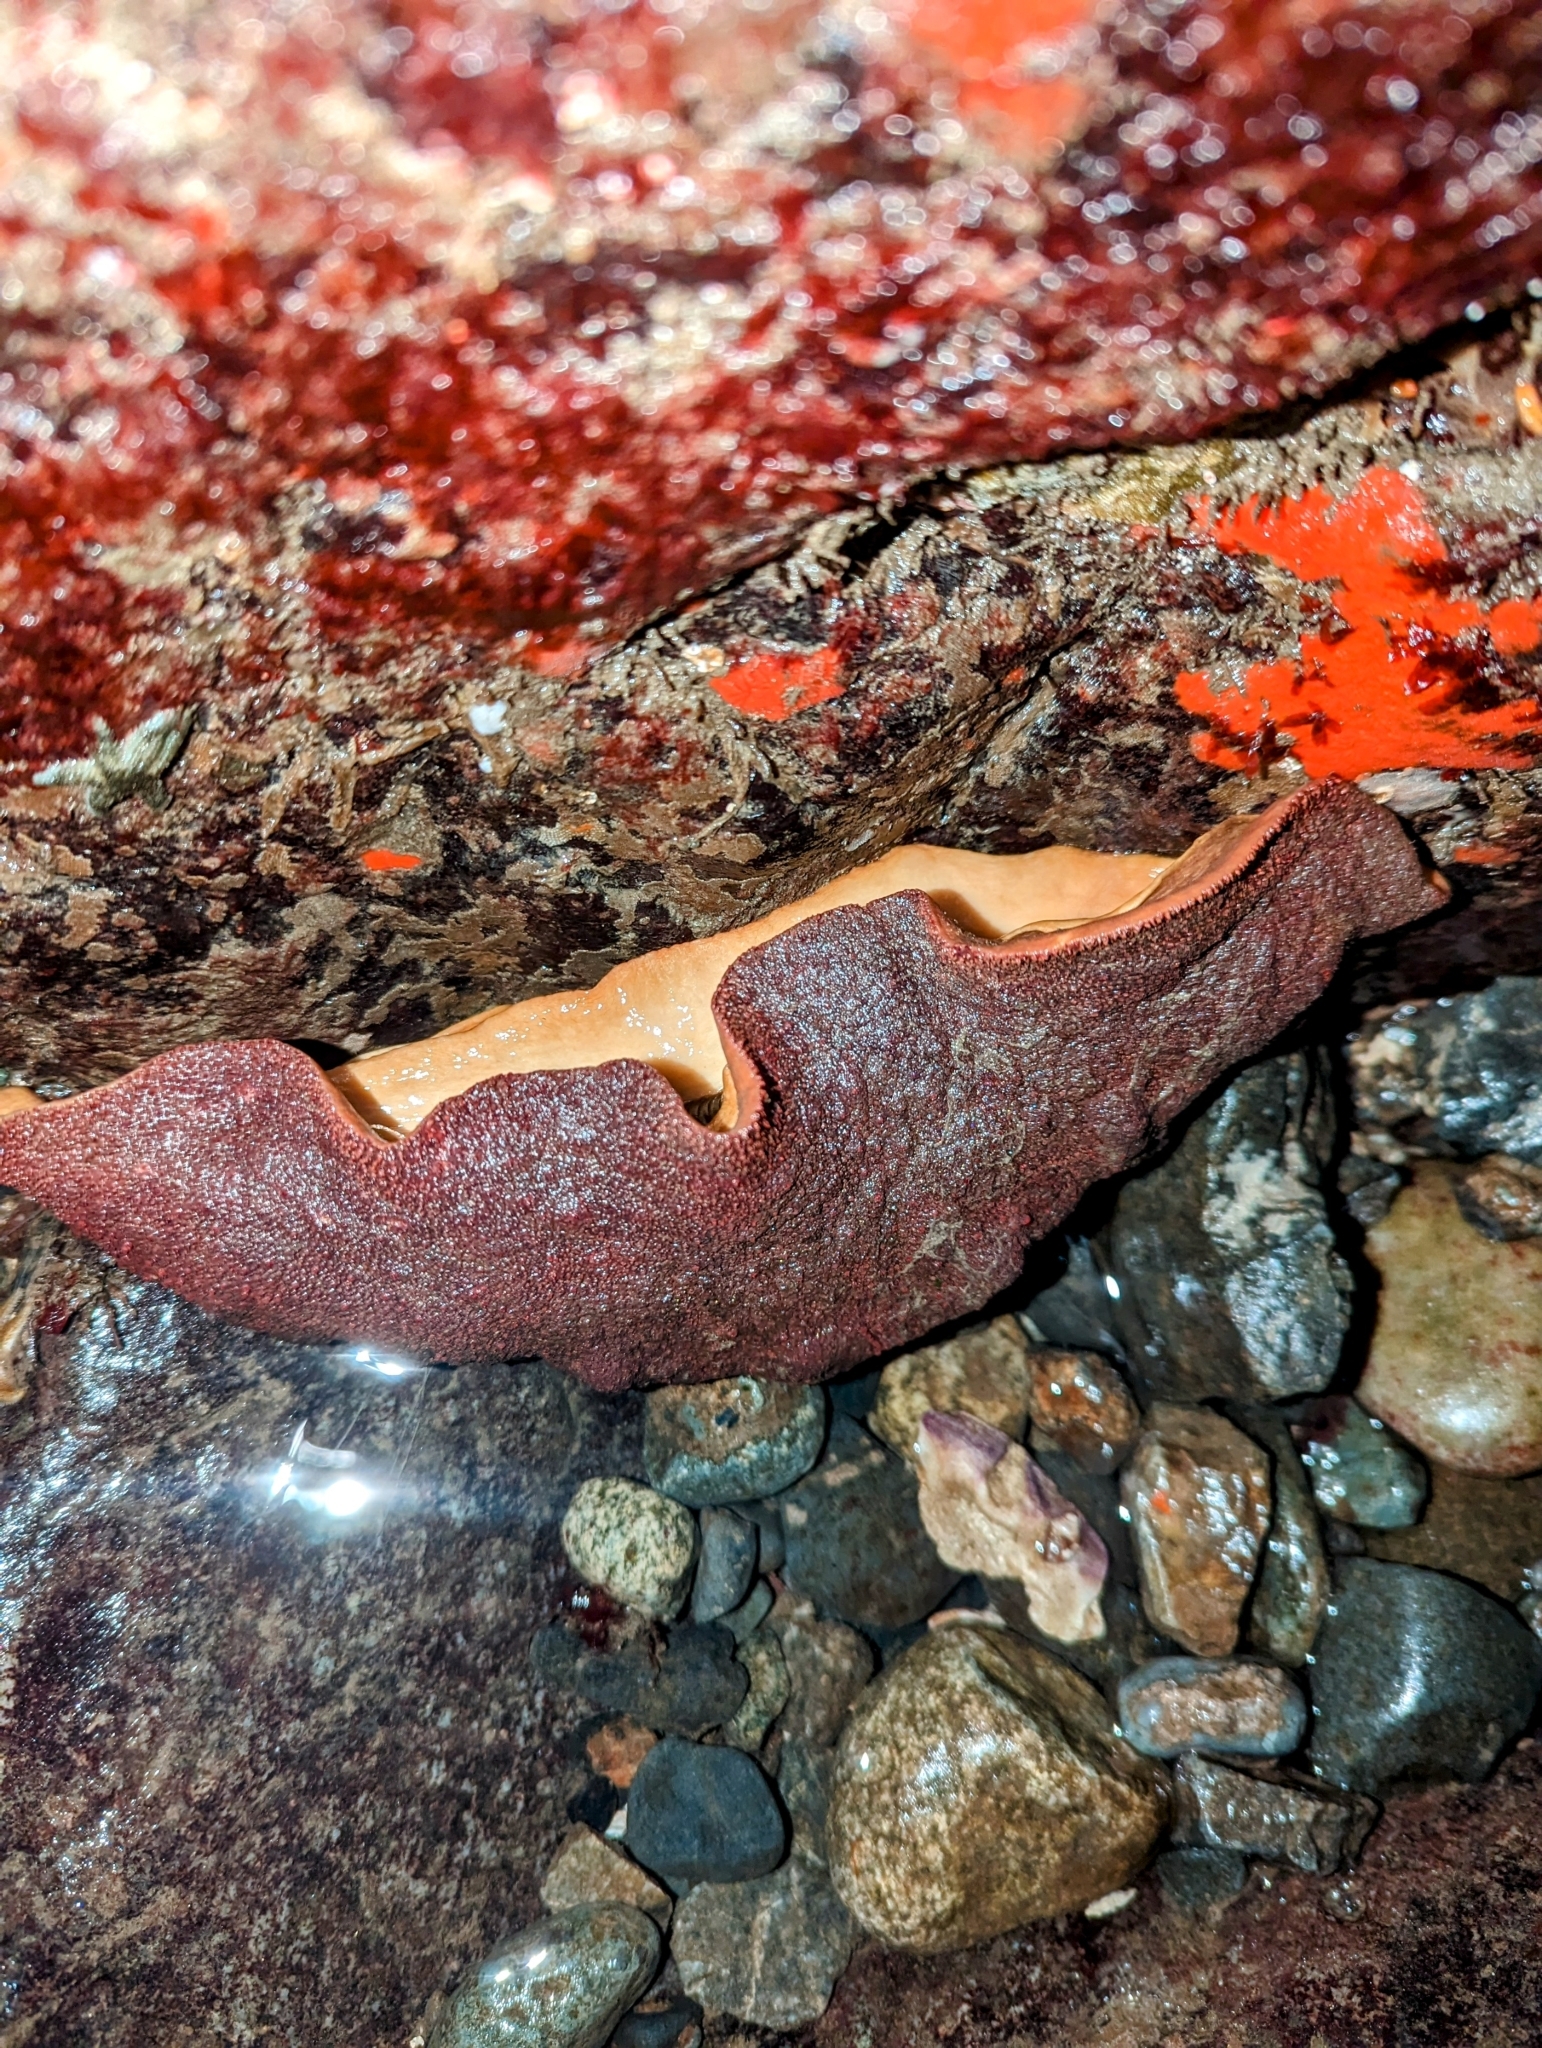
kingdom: Animalia
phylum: Mollusca
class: Polyplacophora
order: Chitonida
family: Acanthochitonidae
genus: Cryptochiton
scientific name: Cryptochiton stelleri
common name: Giant pacific chiton
